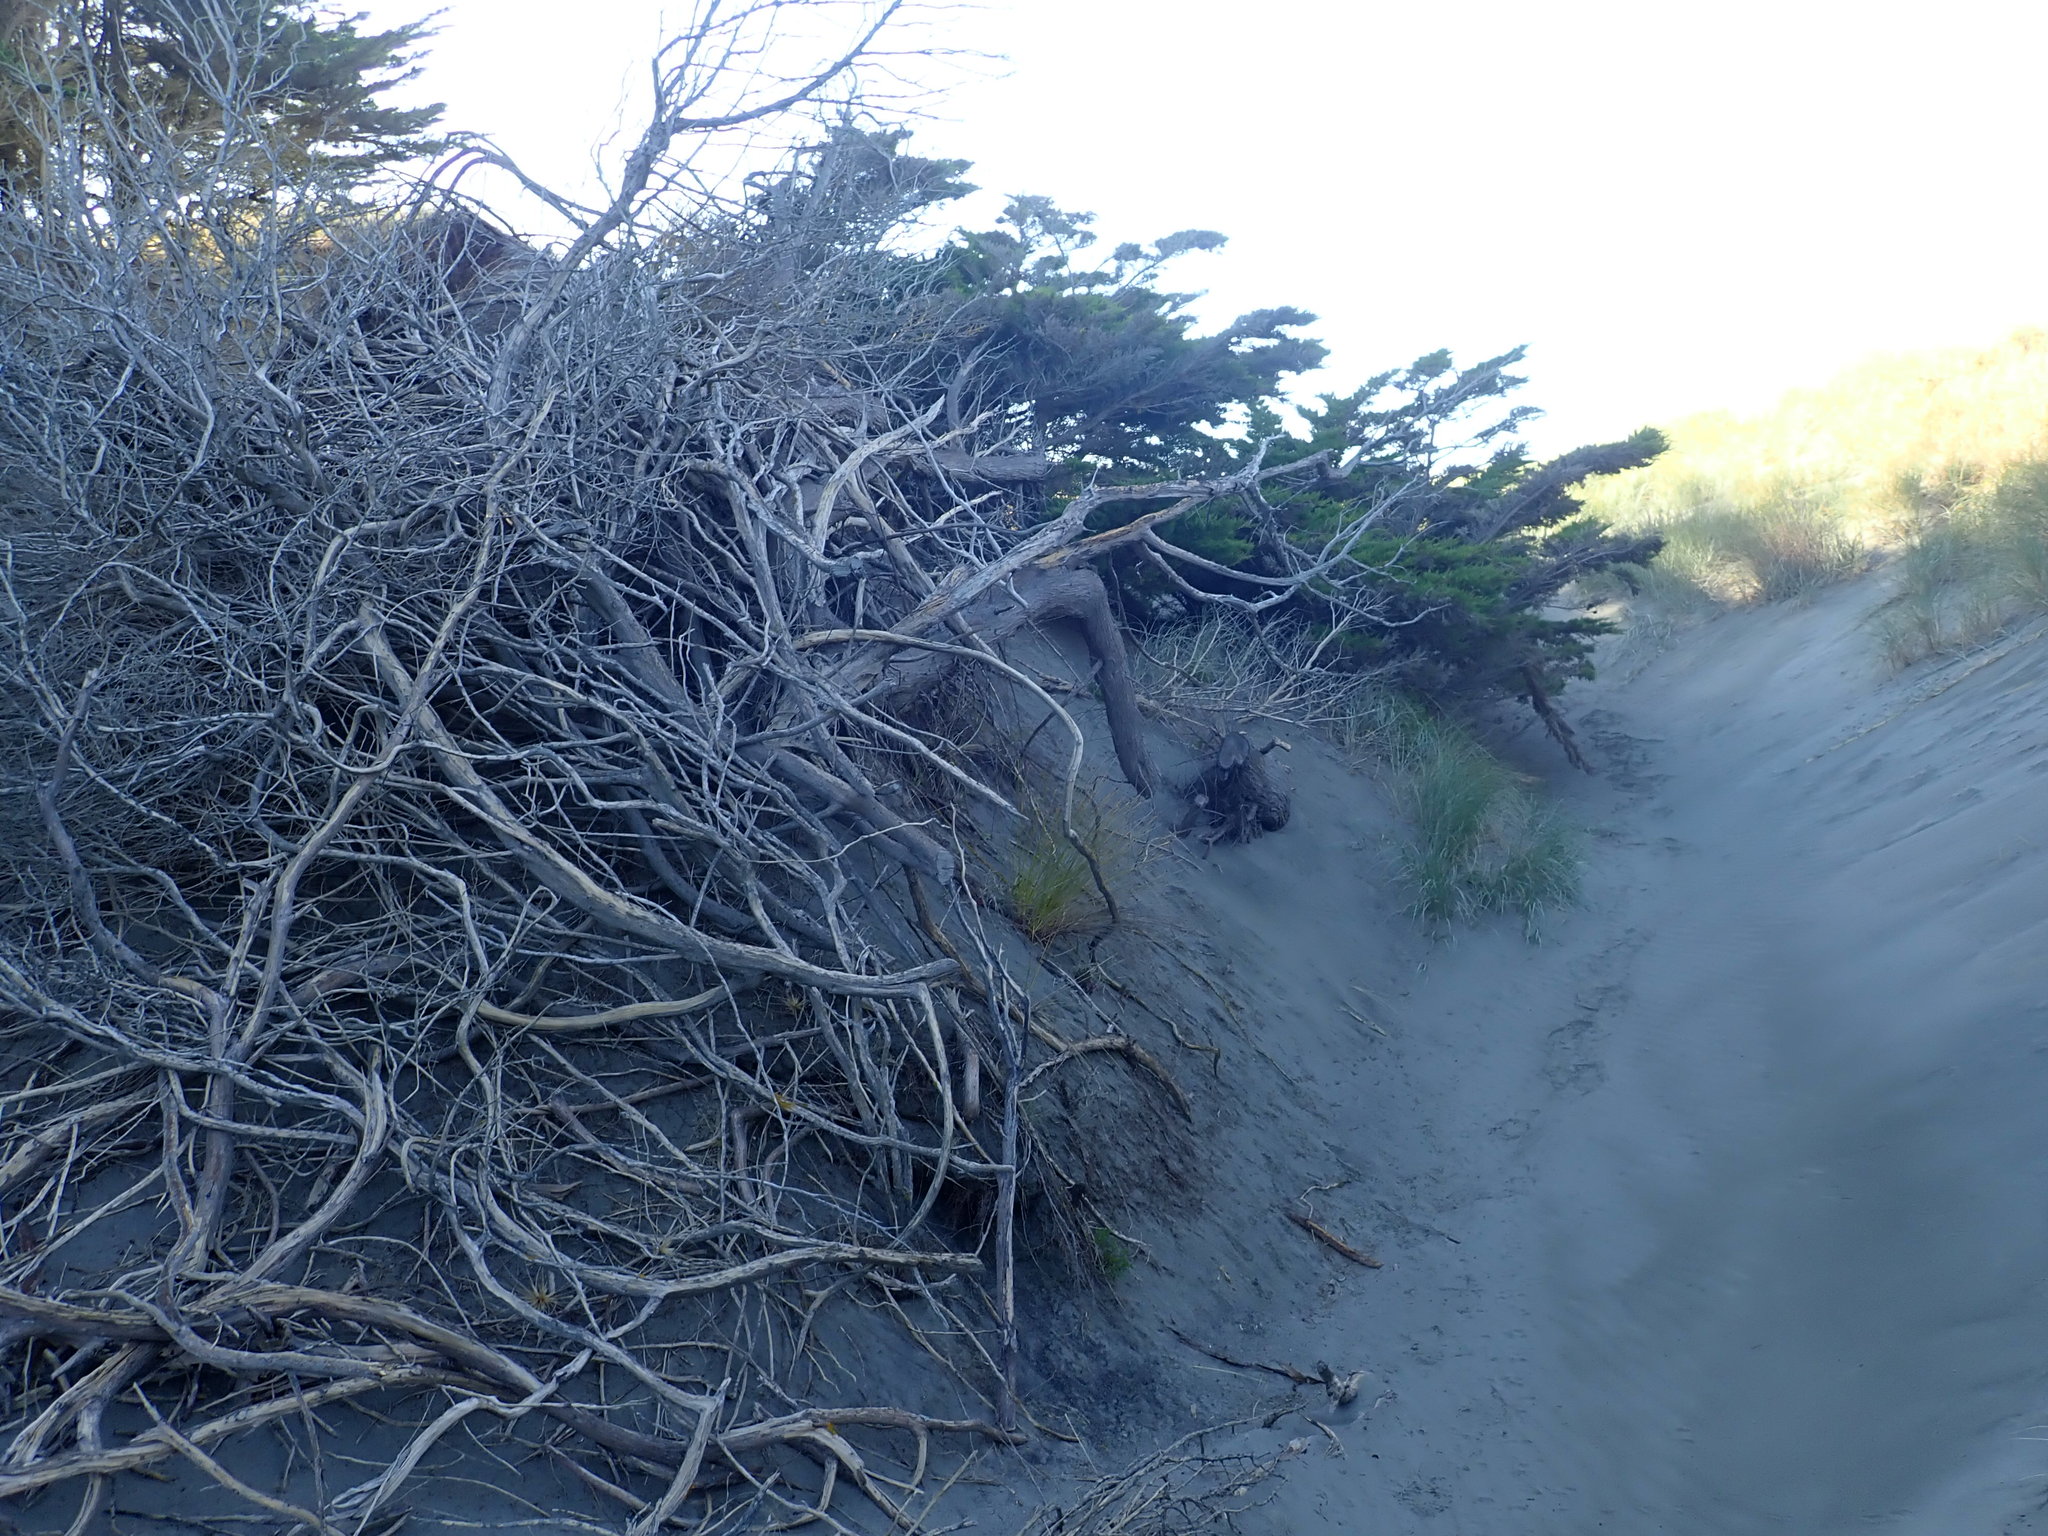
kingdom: Plantae
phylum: Tracheophyta
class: Pinopsida
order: Pinales
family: Cupressaceae
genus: Cupressus
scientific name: Cupressus macrocarpa
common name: Monterey cypress
